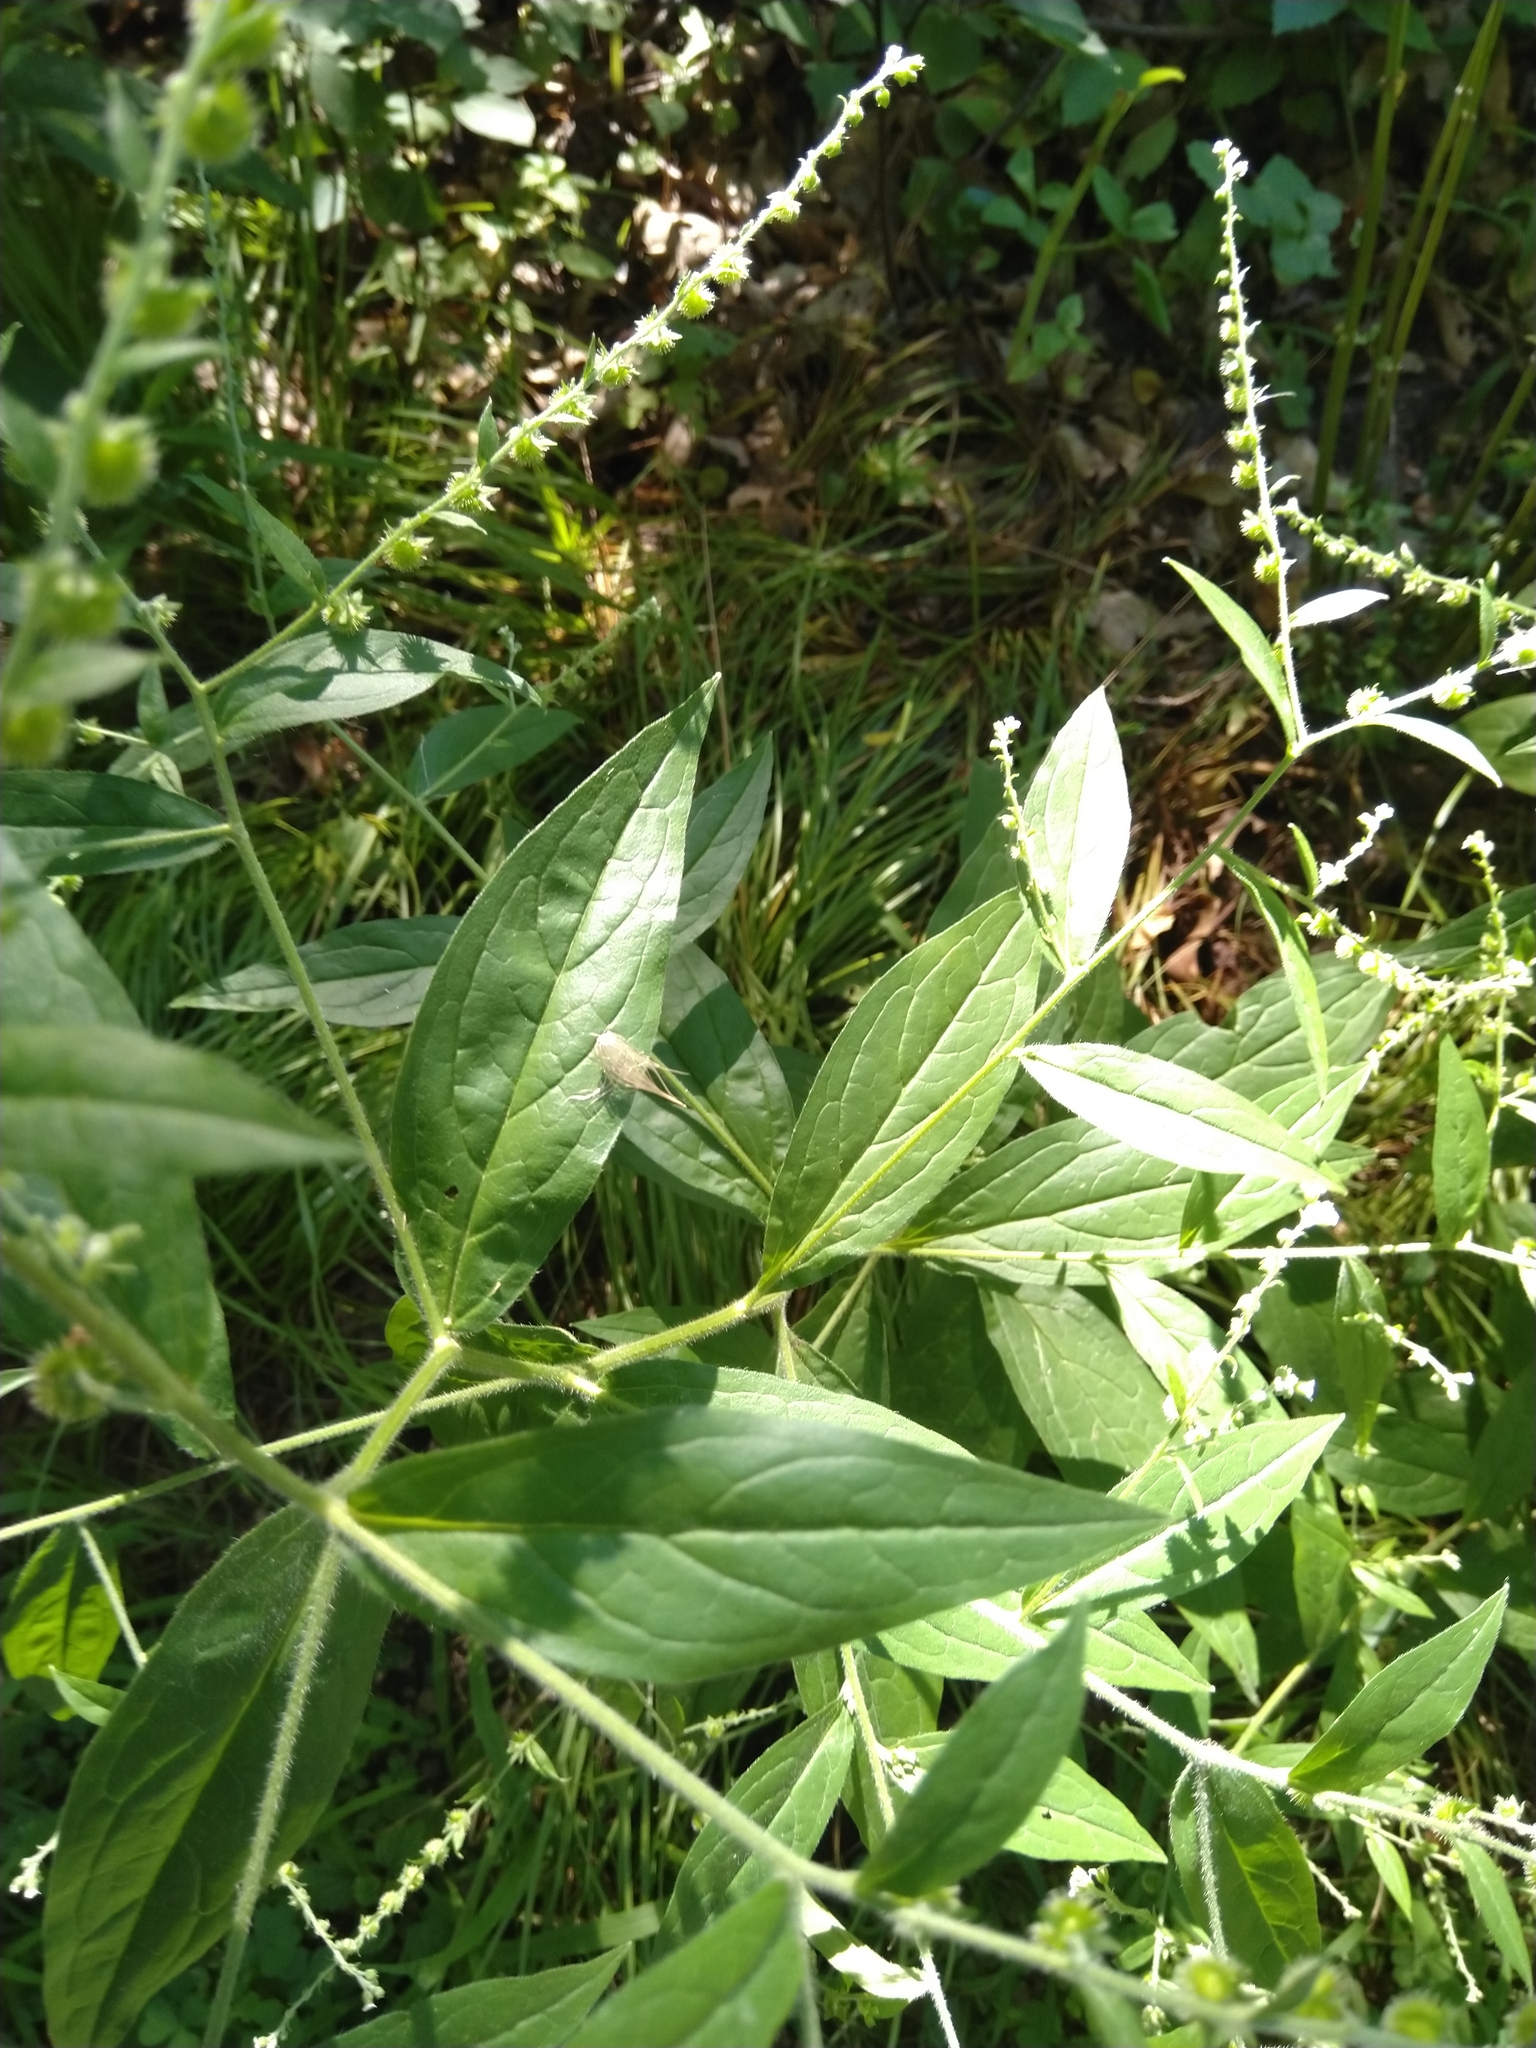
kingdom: Plantae
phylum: Tracheophyta
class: Magnoliopsida
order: Boraginales
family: Boraginaceae
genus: Hackelia
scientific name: Hackelia virginiana
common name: Beggar's-lice
